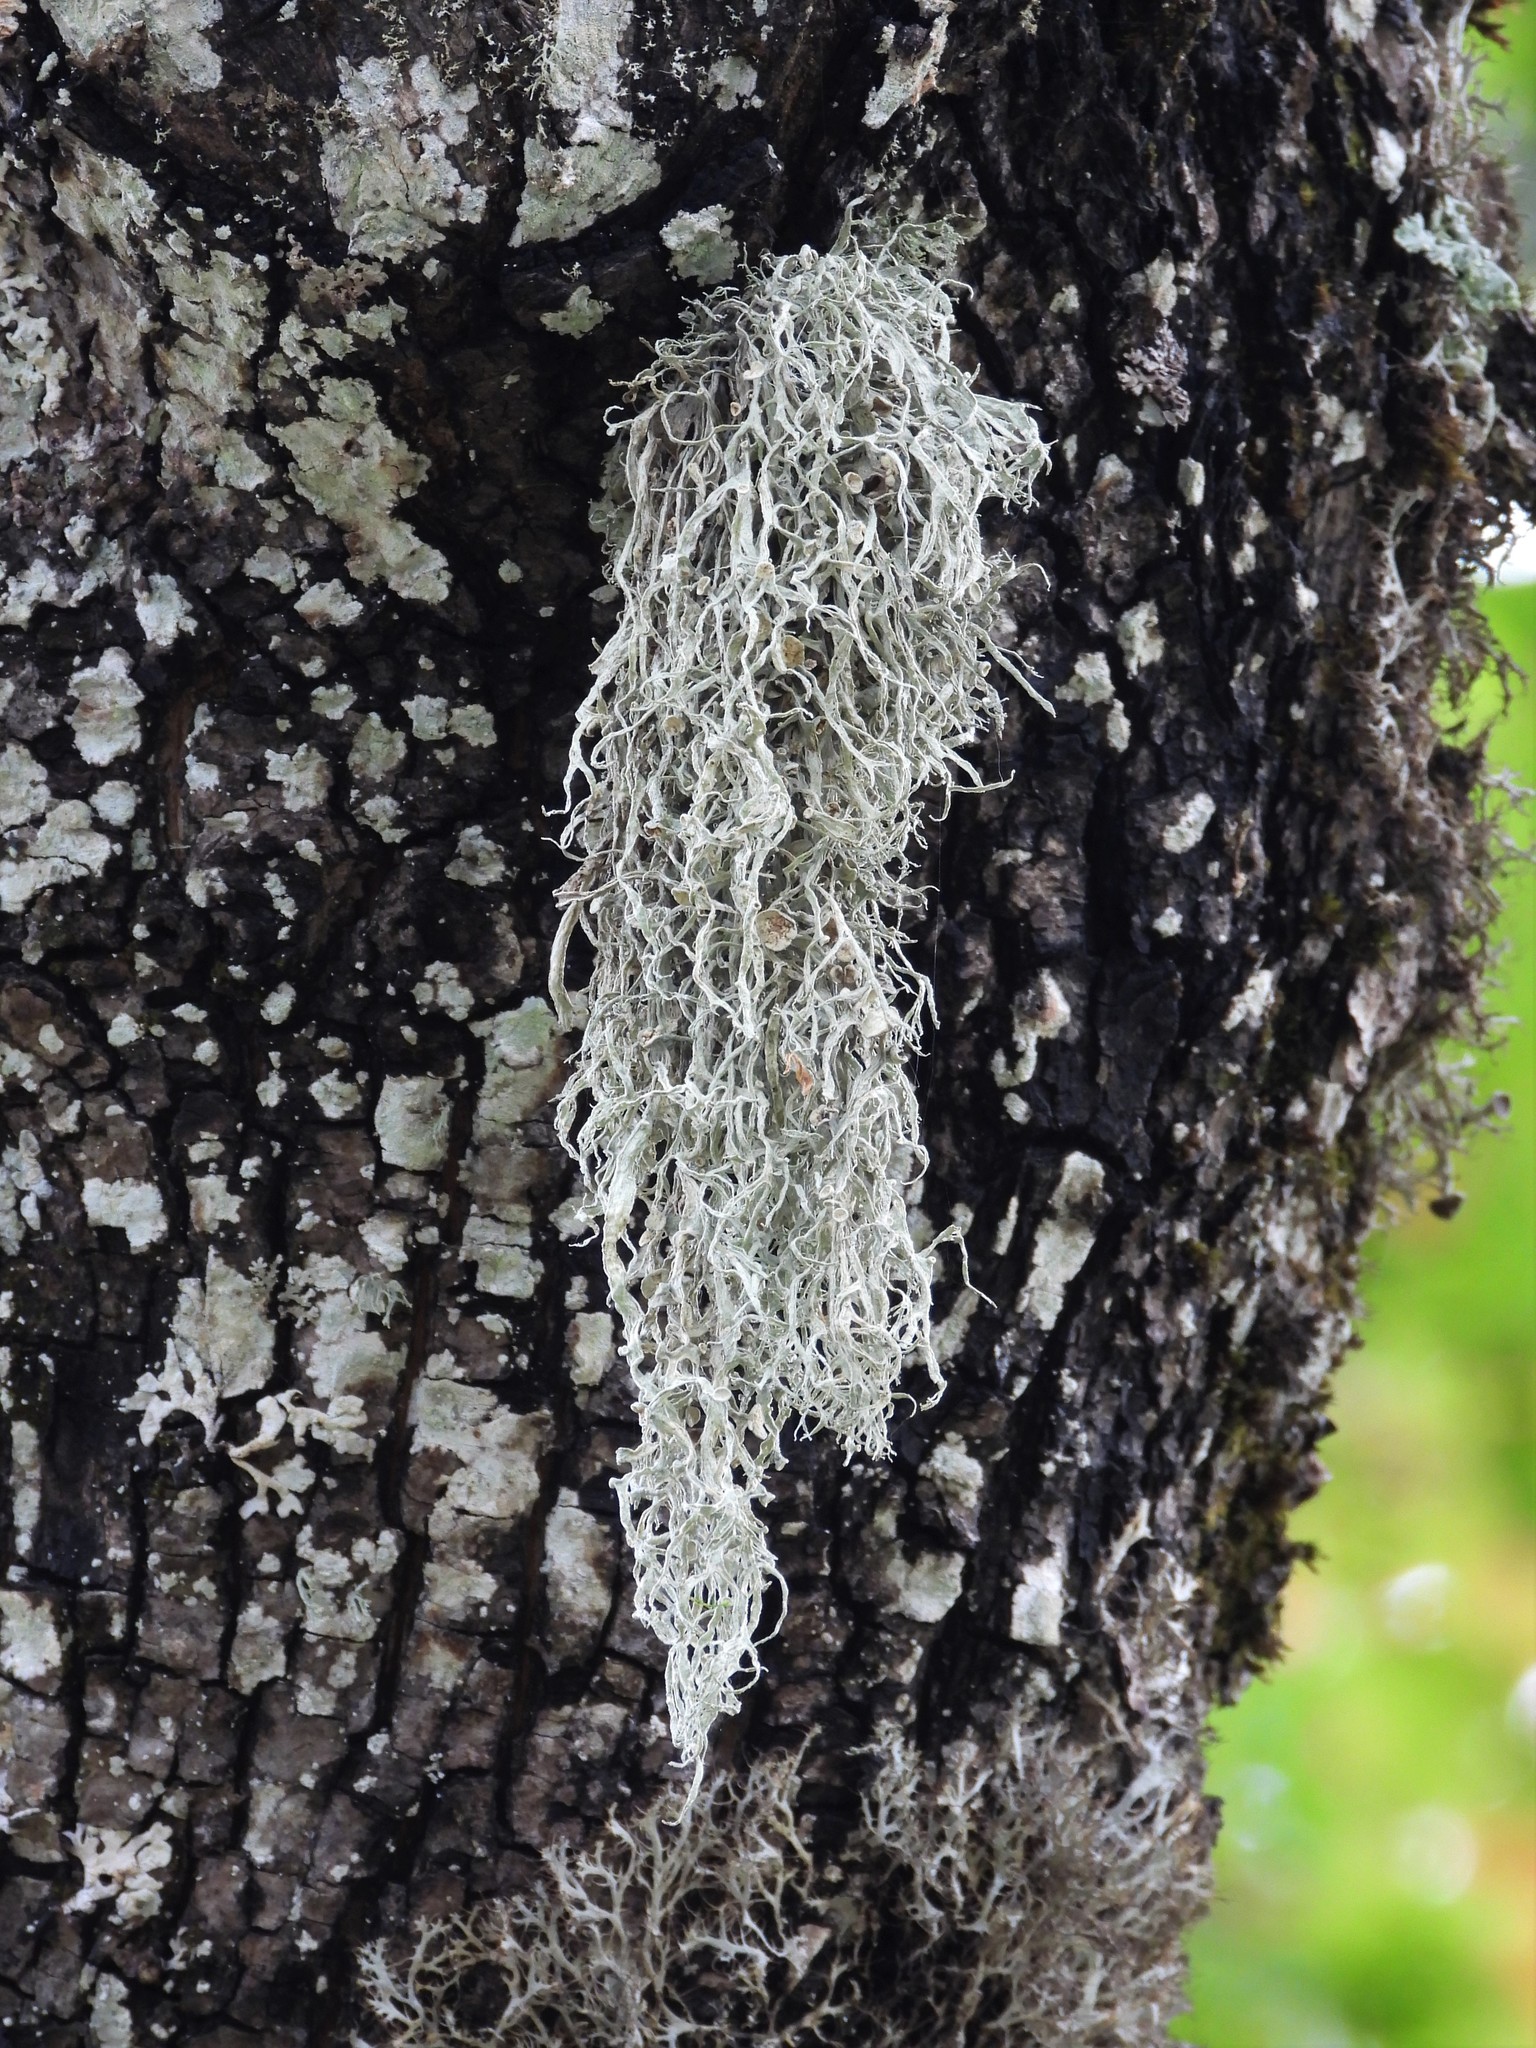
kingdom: Fungi
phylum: Ascomycota
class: Lecanoromycetes
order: Lecanorales
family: Ramalinaceae
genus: Ramalina
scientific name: Ramalina fraxinea
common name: Cartilage lichen
